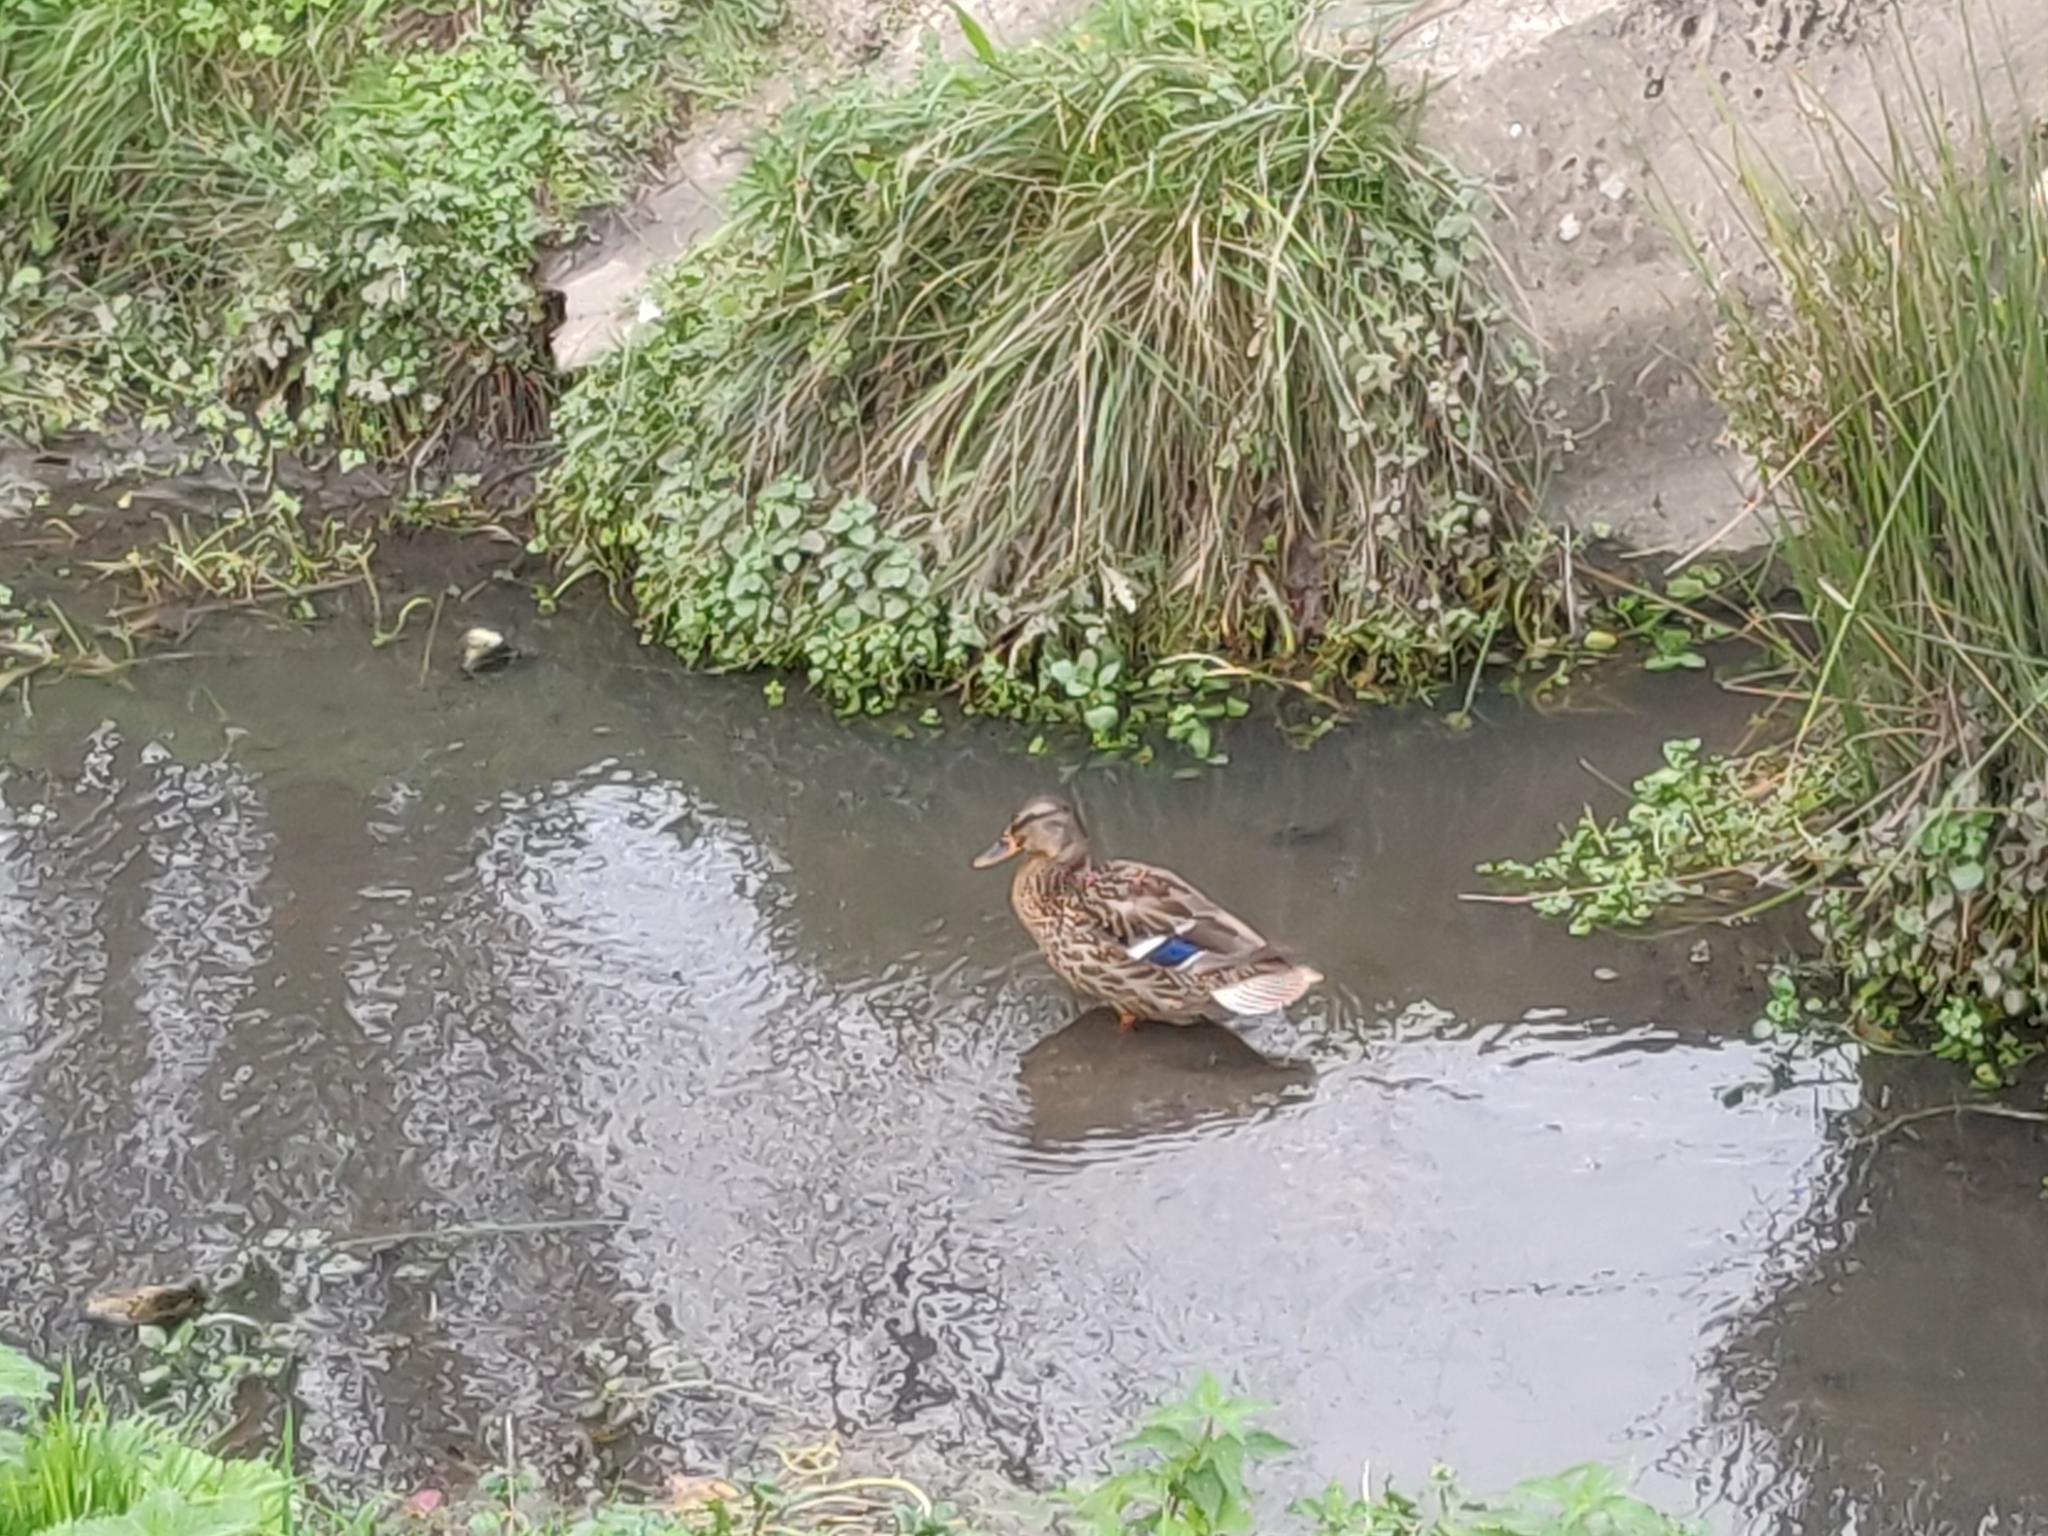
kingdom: Animalia
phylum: Chordata
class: Aves
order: Anseriformes
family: Anatidae
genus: Anas
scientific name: Anas platyrhynchos
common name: Mallard
